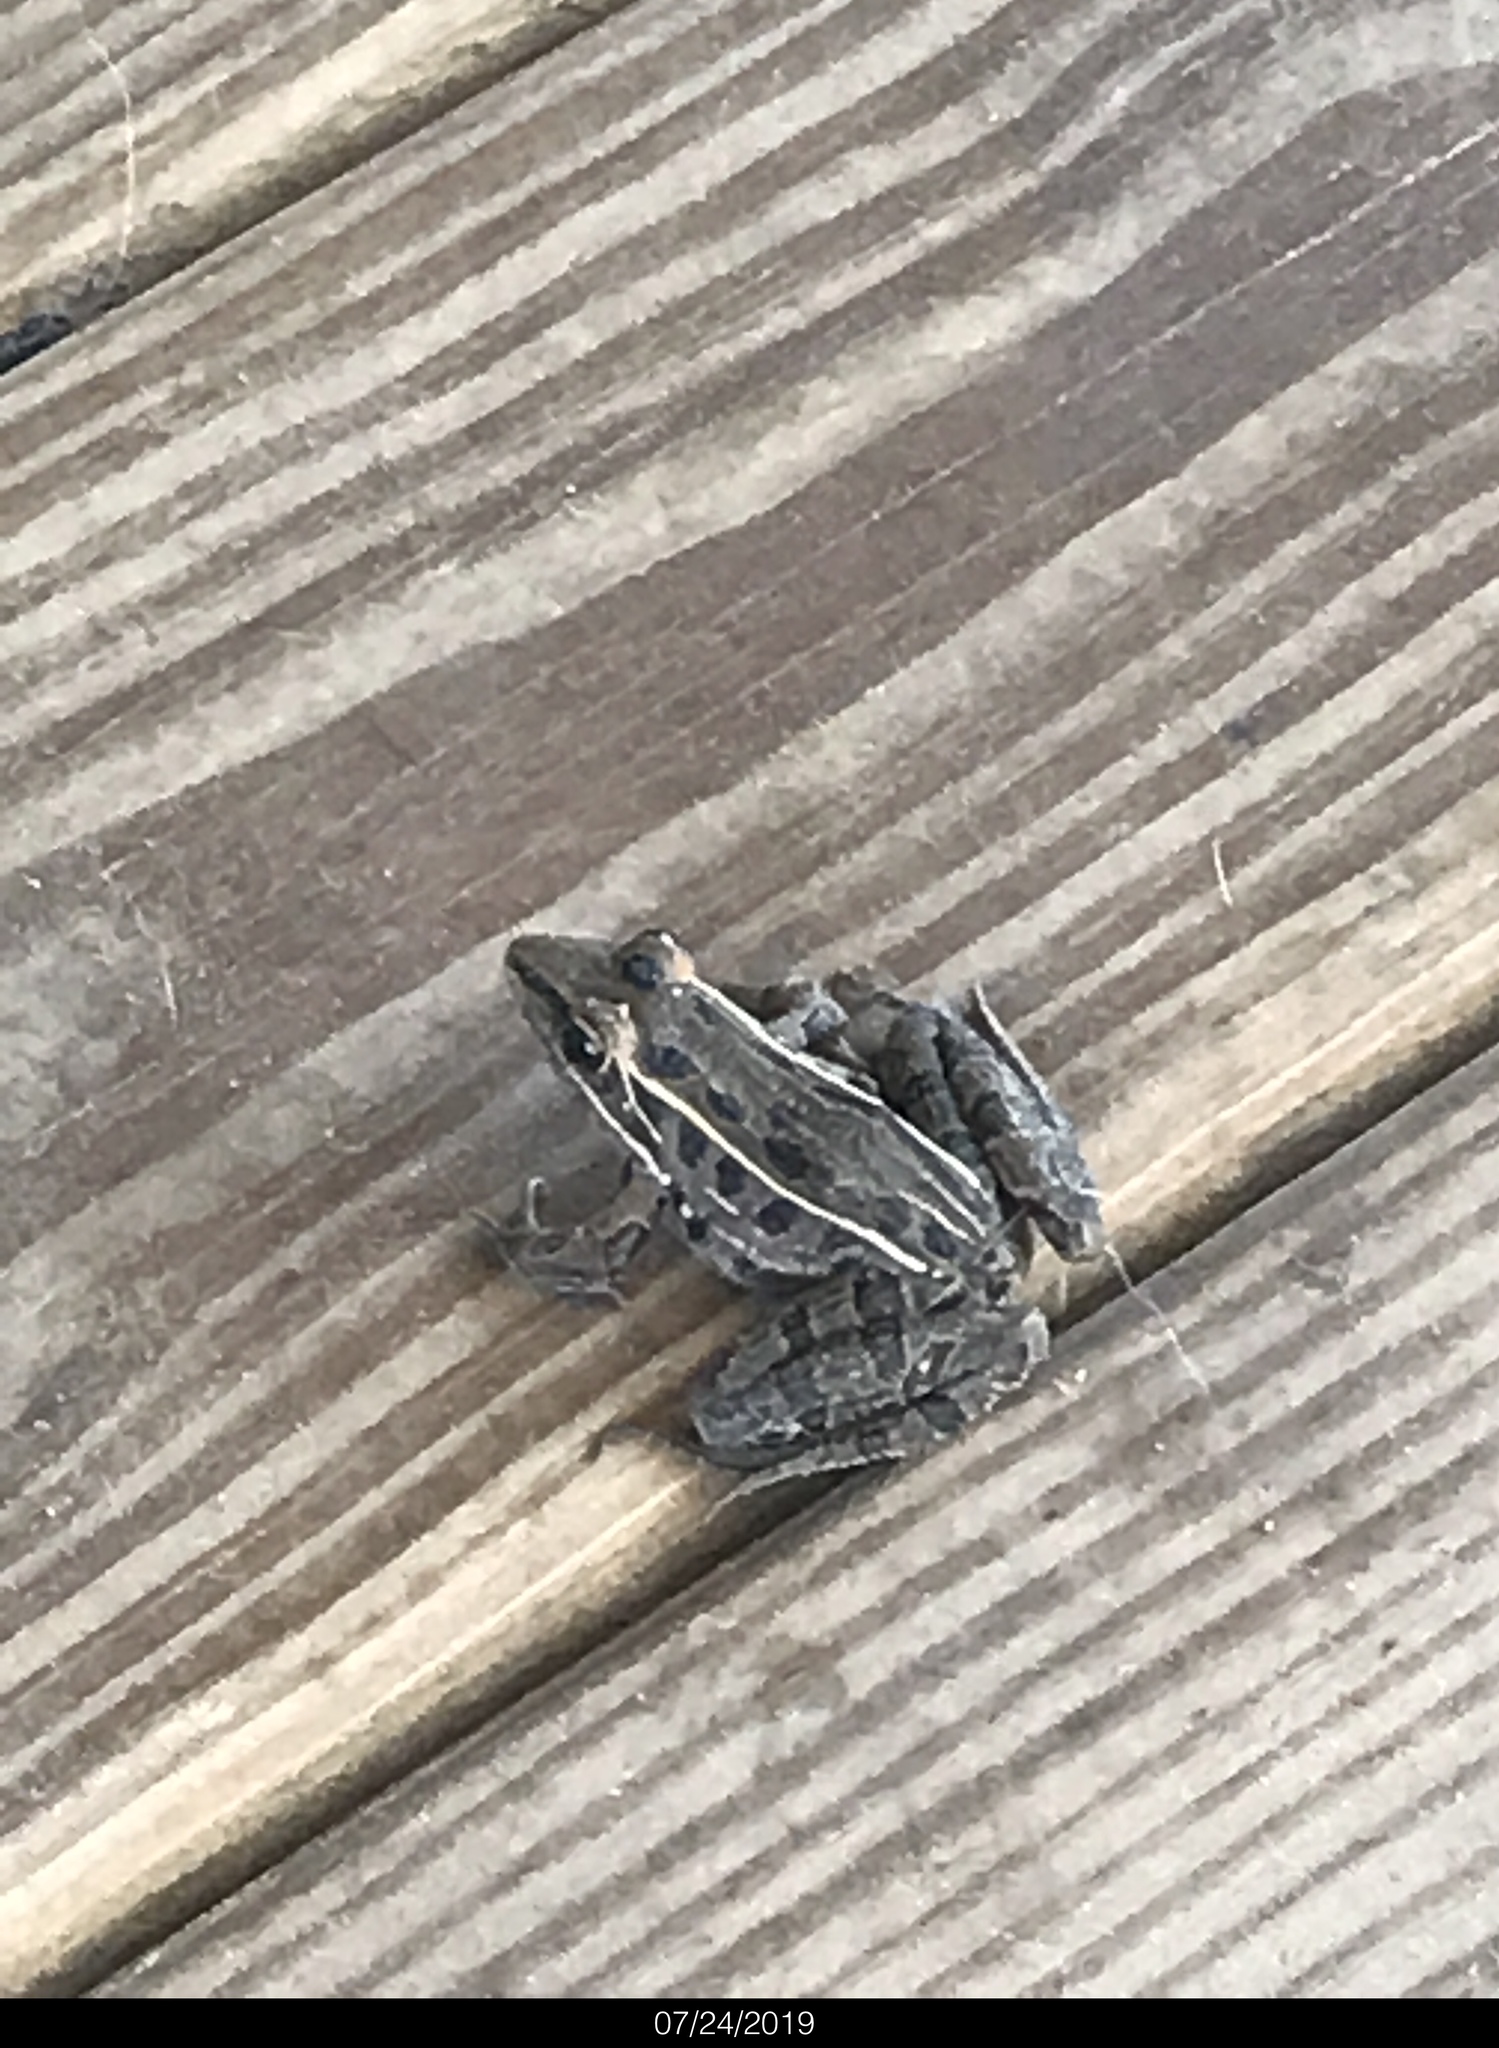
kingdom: Animalia
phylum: Chordata
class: Amphibia
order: Anura
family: Ranidae
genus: Lithobates
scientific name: Lithobates sphenocephalus
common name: Southern leopard frog
